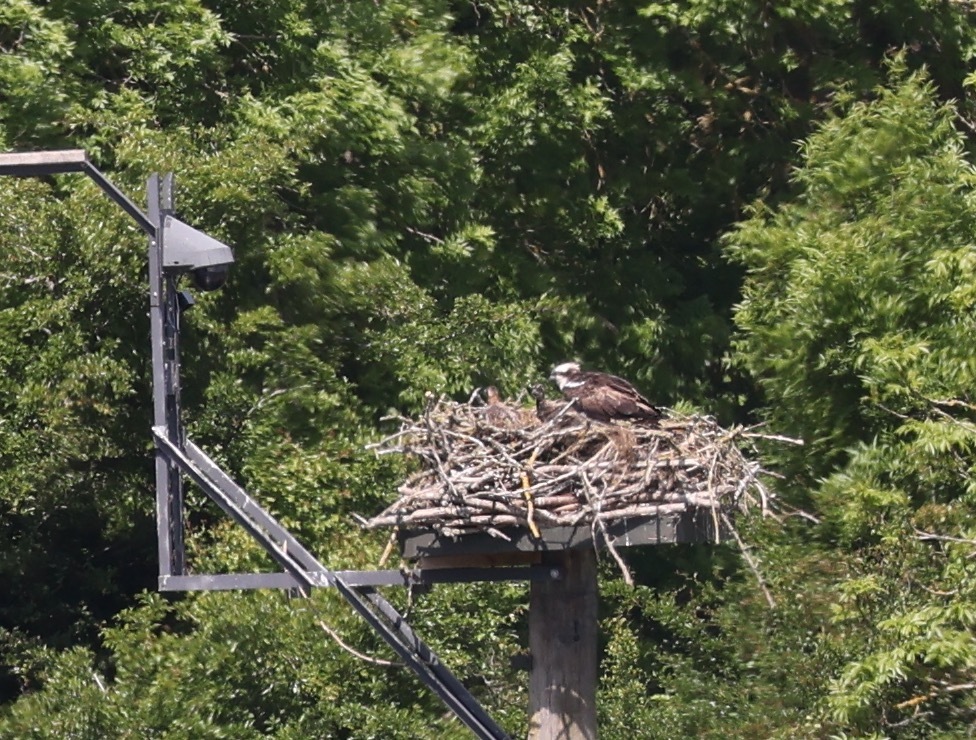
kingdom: Animalia
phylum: Chordata
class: Aves
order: Accipitriformes
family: Pandionidae
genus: Pandion
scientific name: Pandion haliaetus
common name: Osprey
